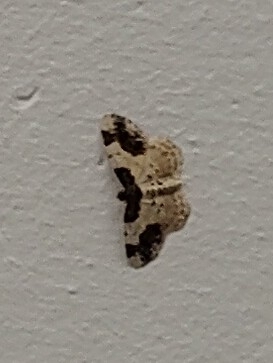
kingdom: Animalia
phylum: Arthropoda
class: Insecta
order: Lepidoptera
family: Geometridae
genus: Ligdia
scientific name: Ligdia adustata
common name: Scorched carpet
